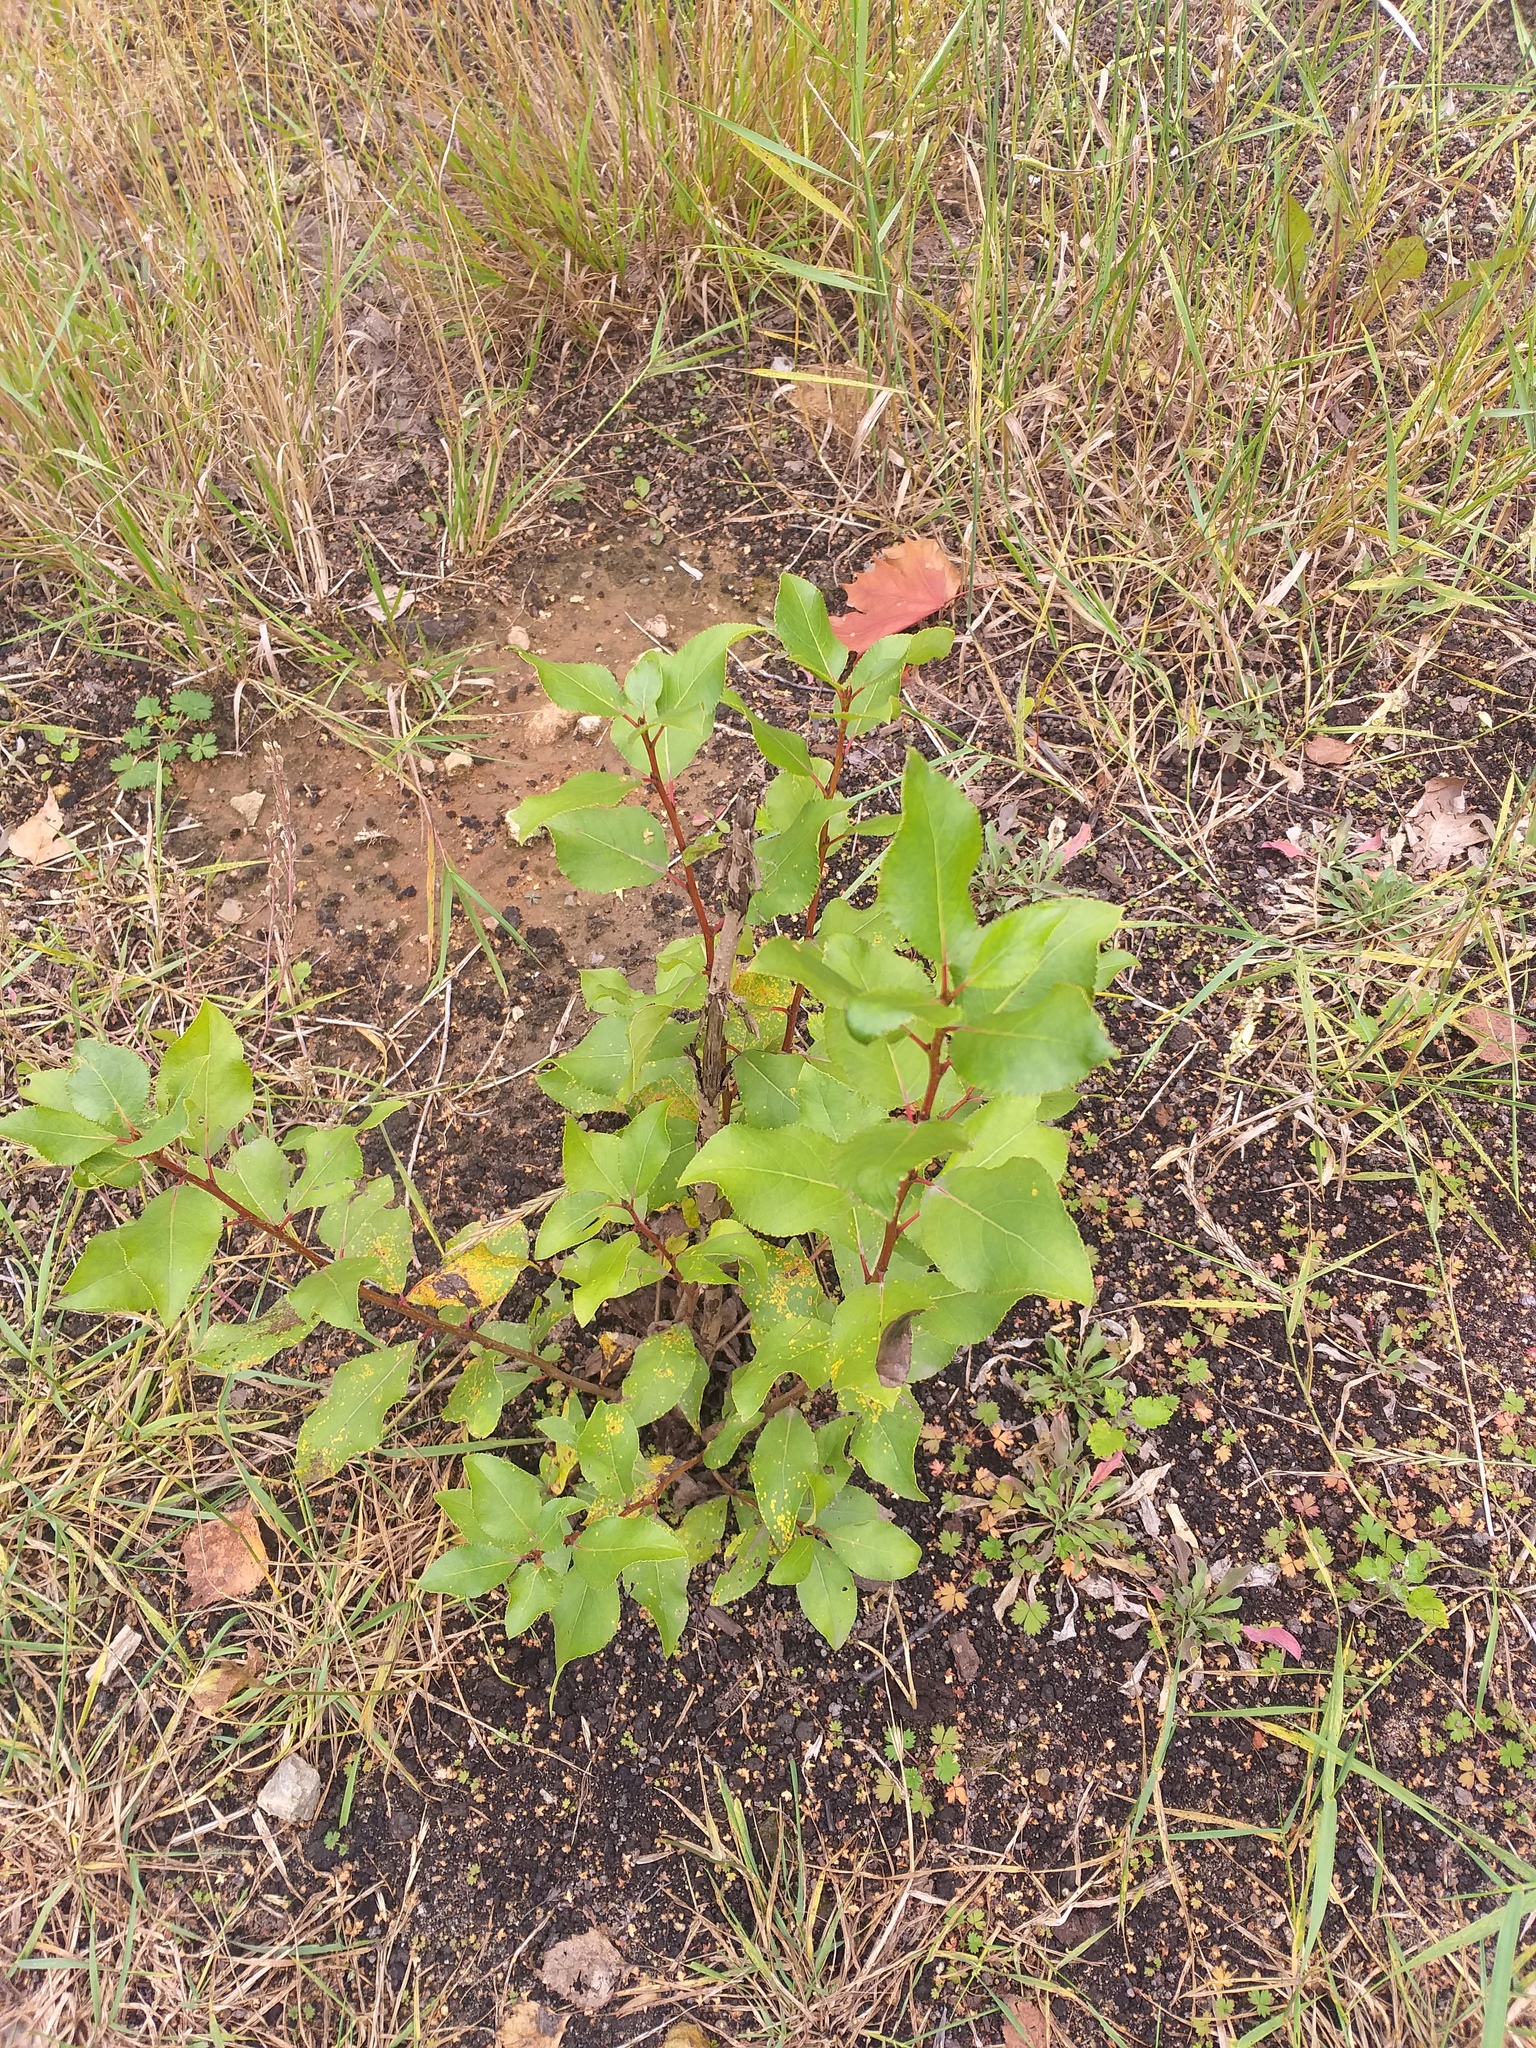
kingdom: Plantae
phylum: Tracheophyta
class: Magnoliopsida
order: Malpighiales
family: Salicaceae
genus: Populus
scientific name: Populus
